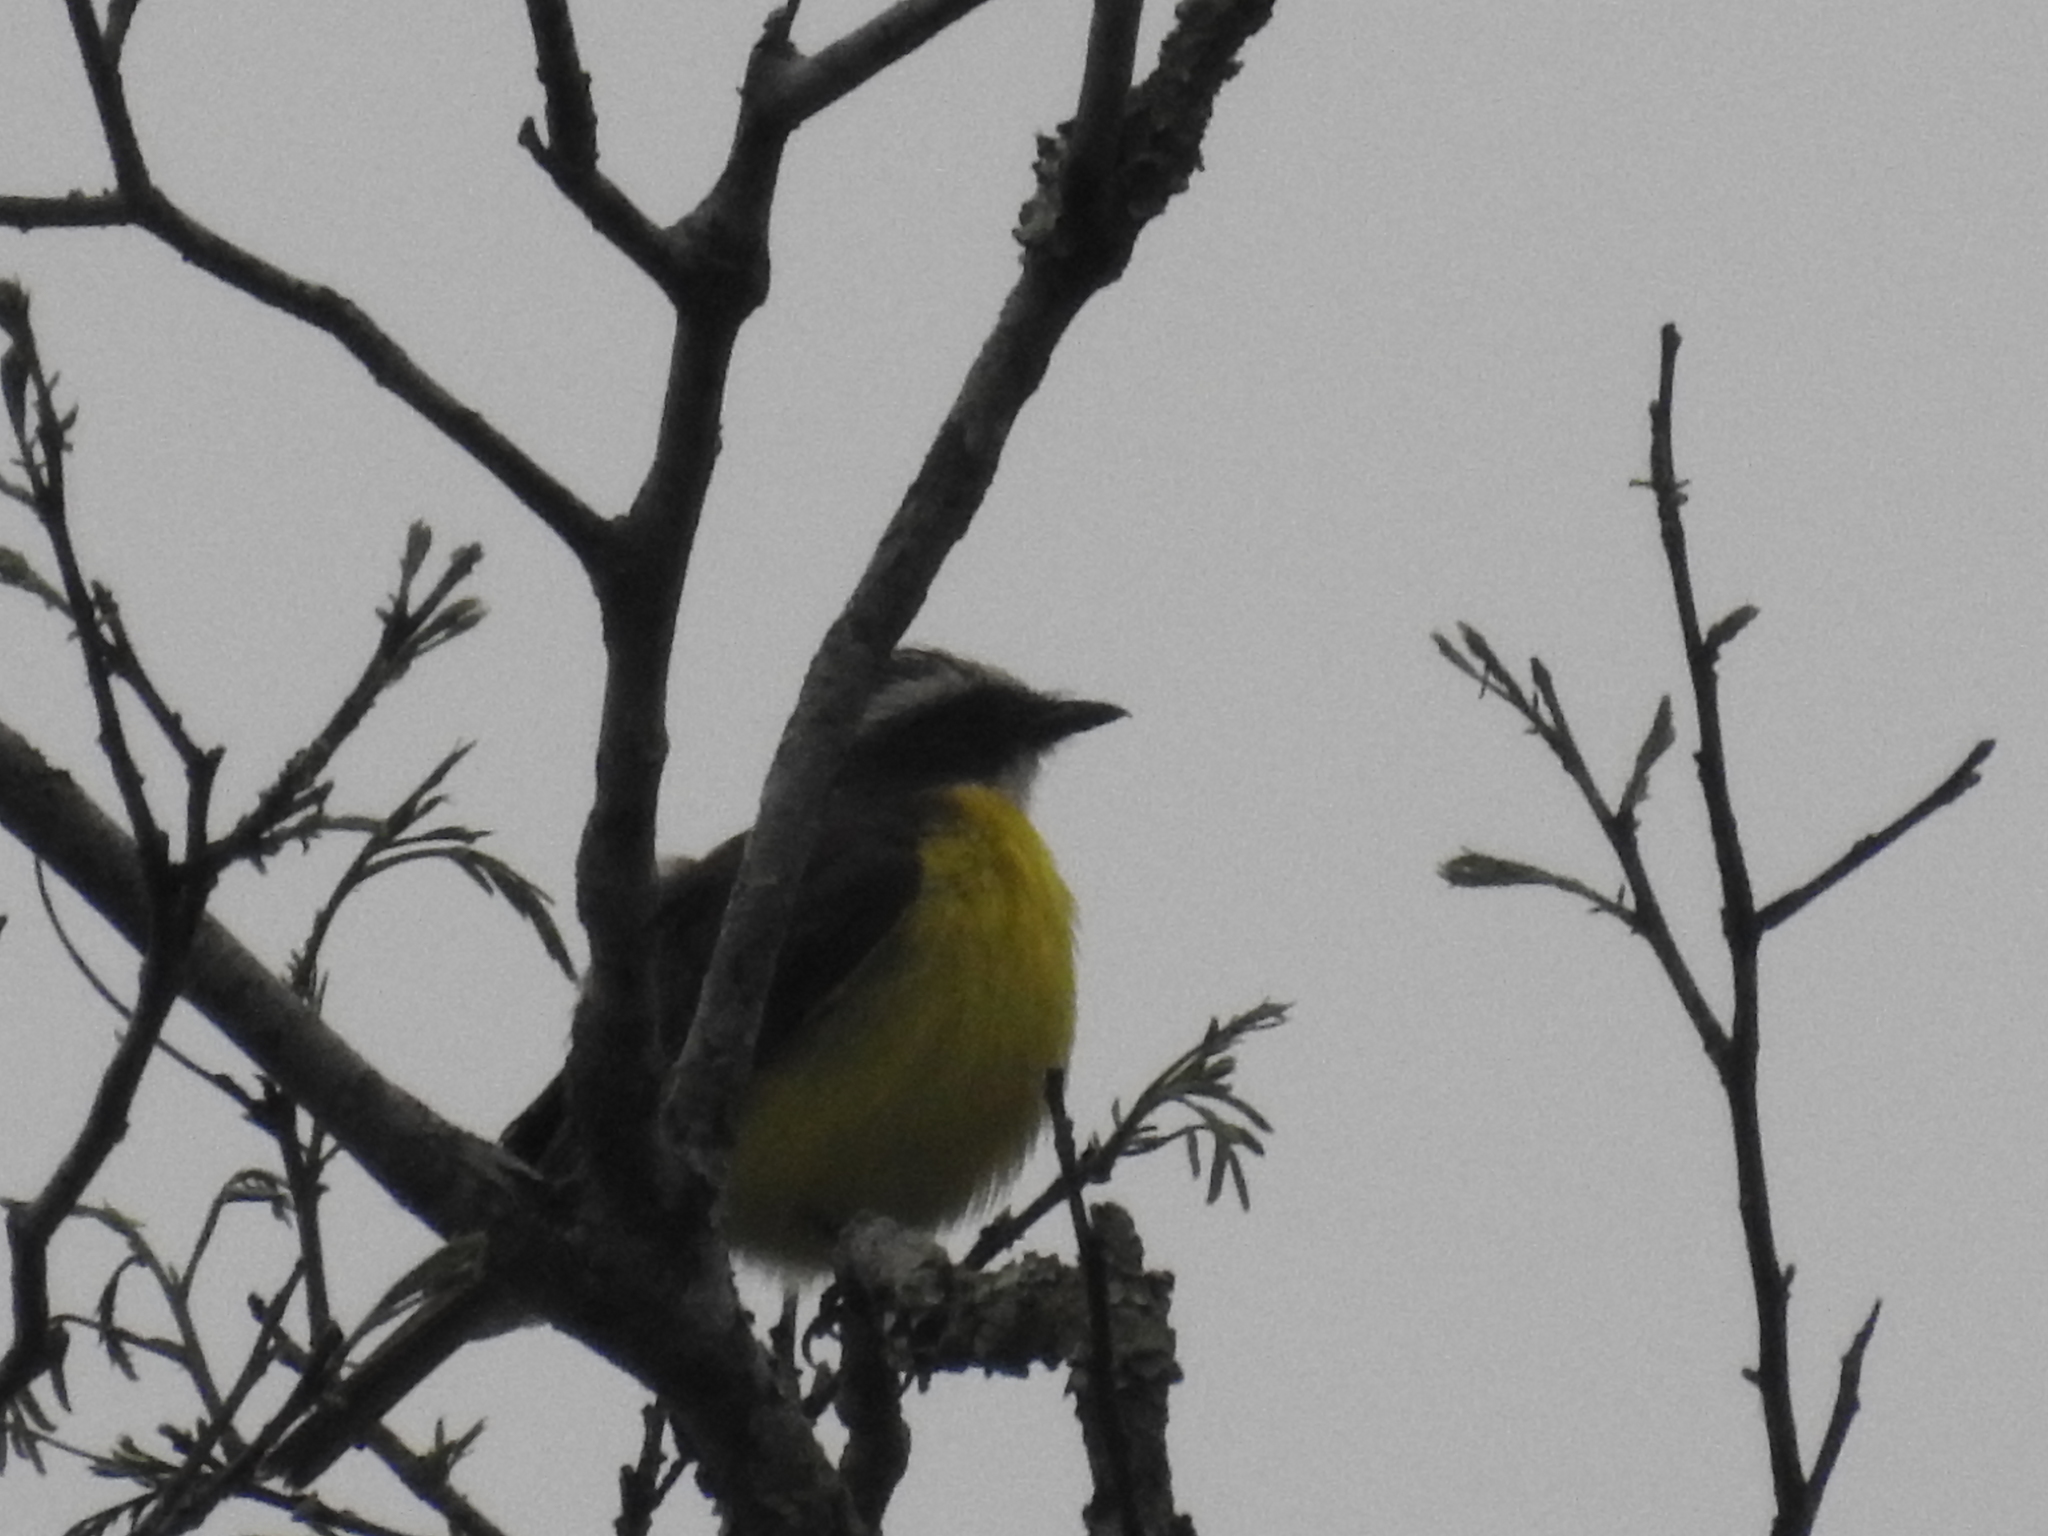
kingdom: Animalia
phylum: Chordata
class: Aves
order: Passeriformes
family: Tyrannidae
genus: Myiozetetes
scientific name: Myiozetetes similis
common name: Social flycatcher
